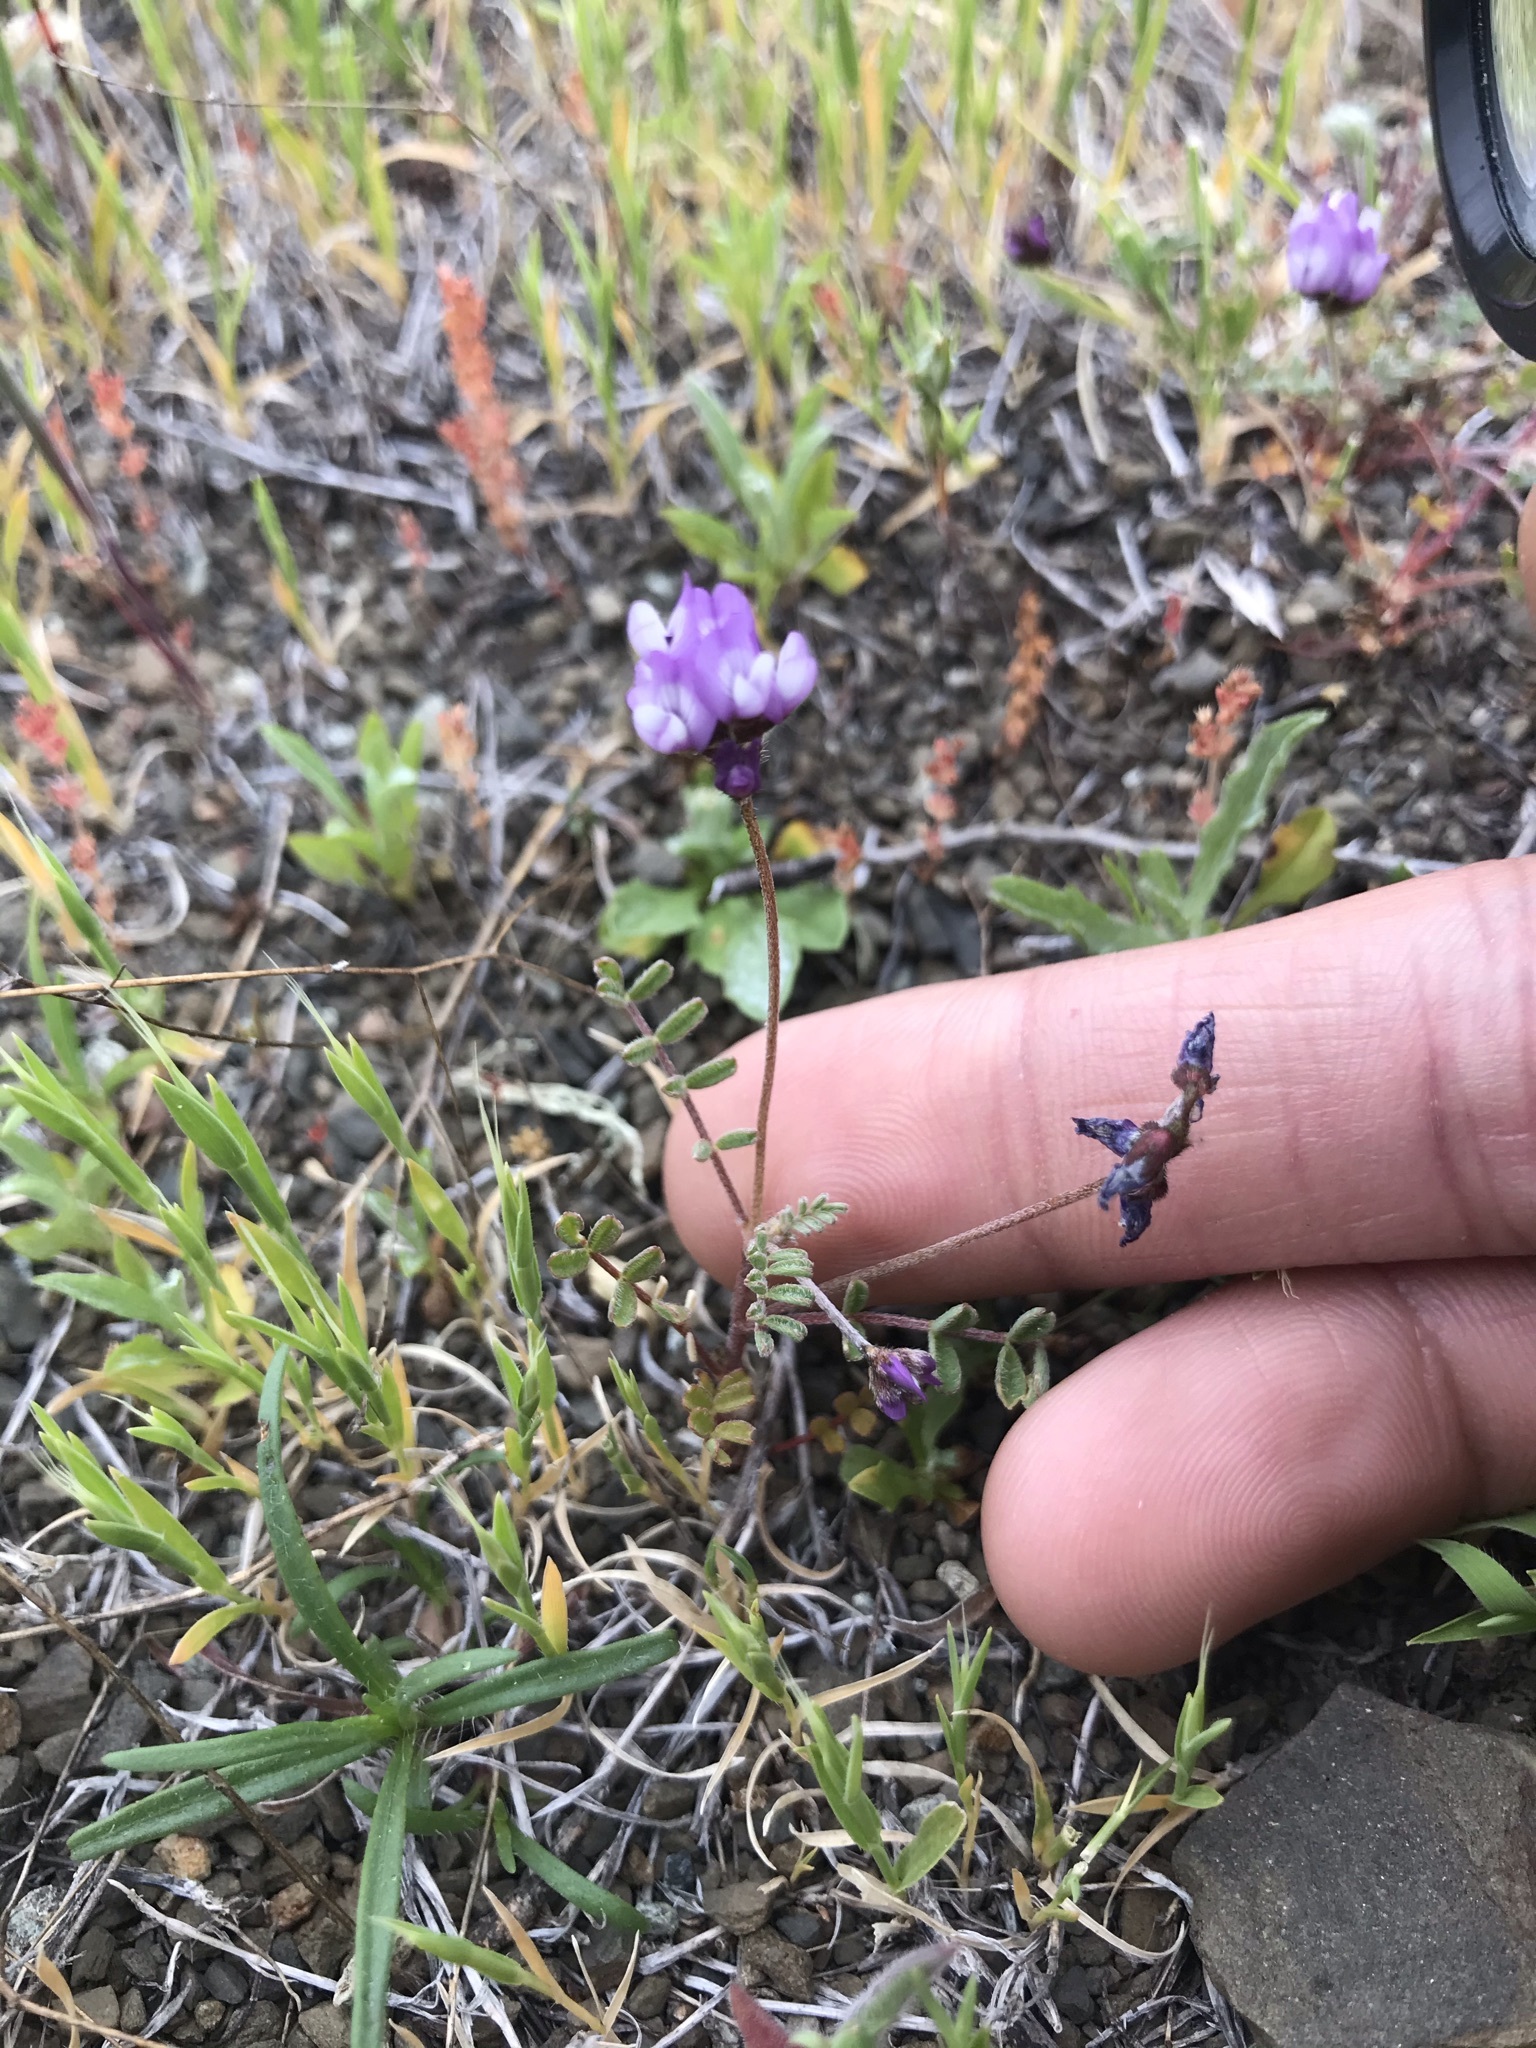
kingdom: Plantae
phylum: Tracheophyta
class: Magnoliopsida
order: Fabales
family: Fabaceae
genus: Astragalus
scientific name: Astragalus gambelianus
